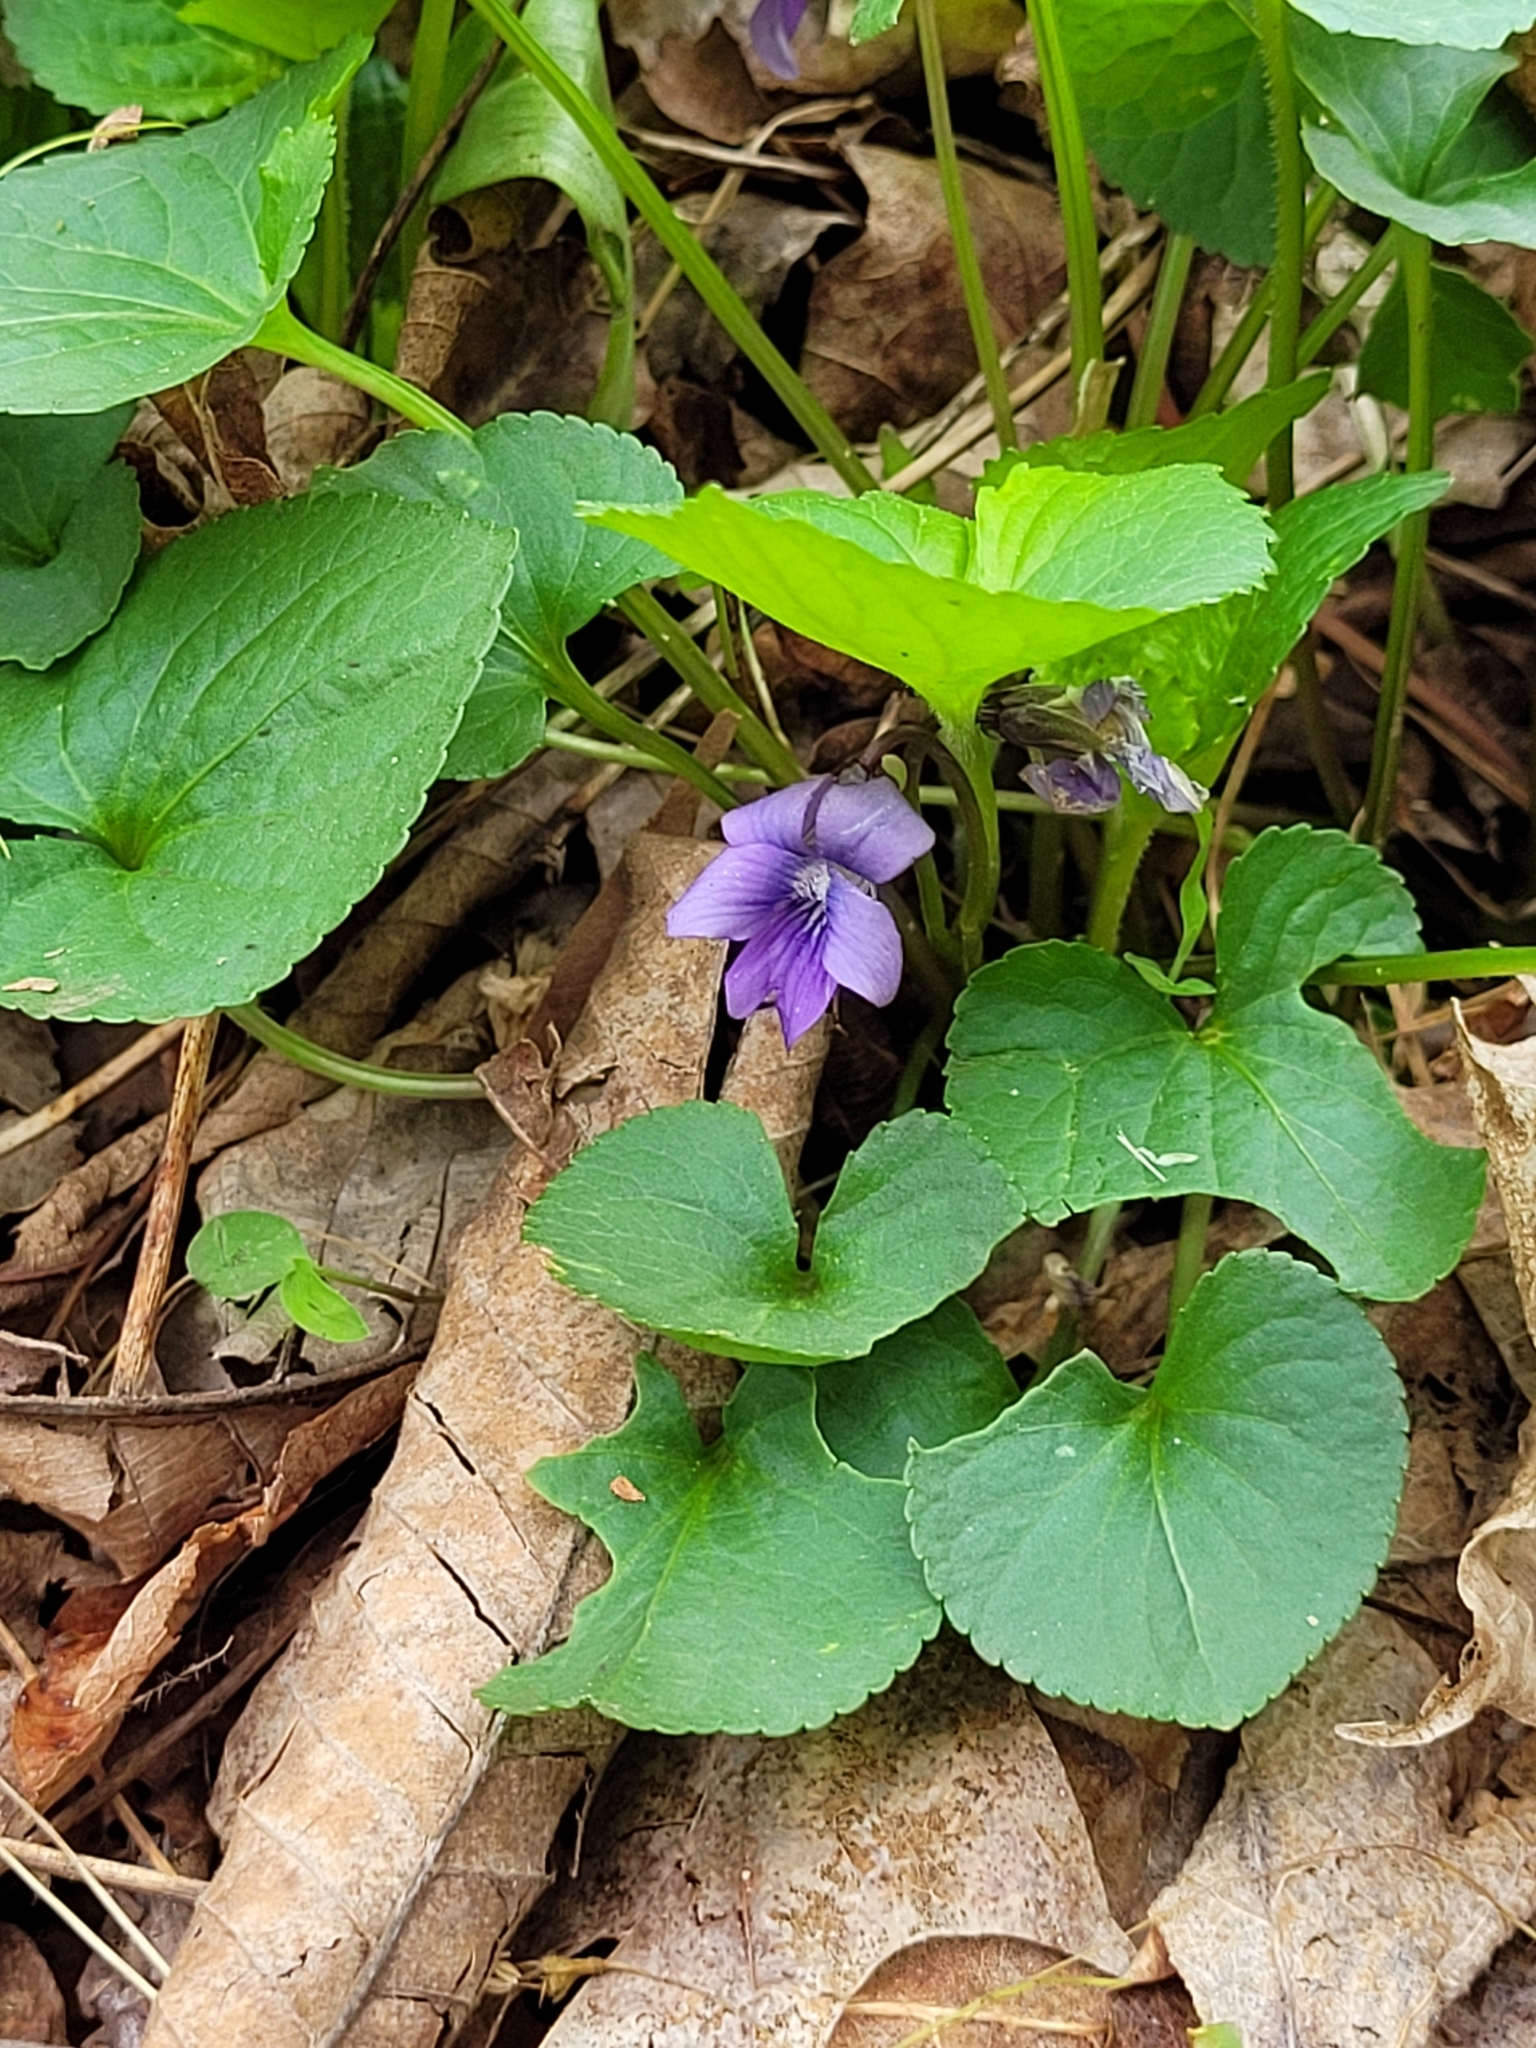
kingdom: Plantae
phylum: Tracheophyta
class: Magnoliopsida
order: Malpighiales
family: Violaceae
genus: Viola
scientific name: Viola sororia
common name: Dooryard violet
